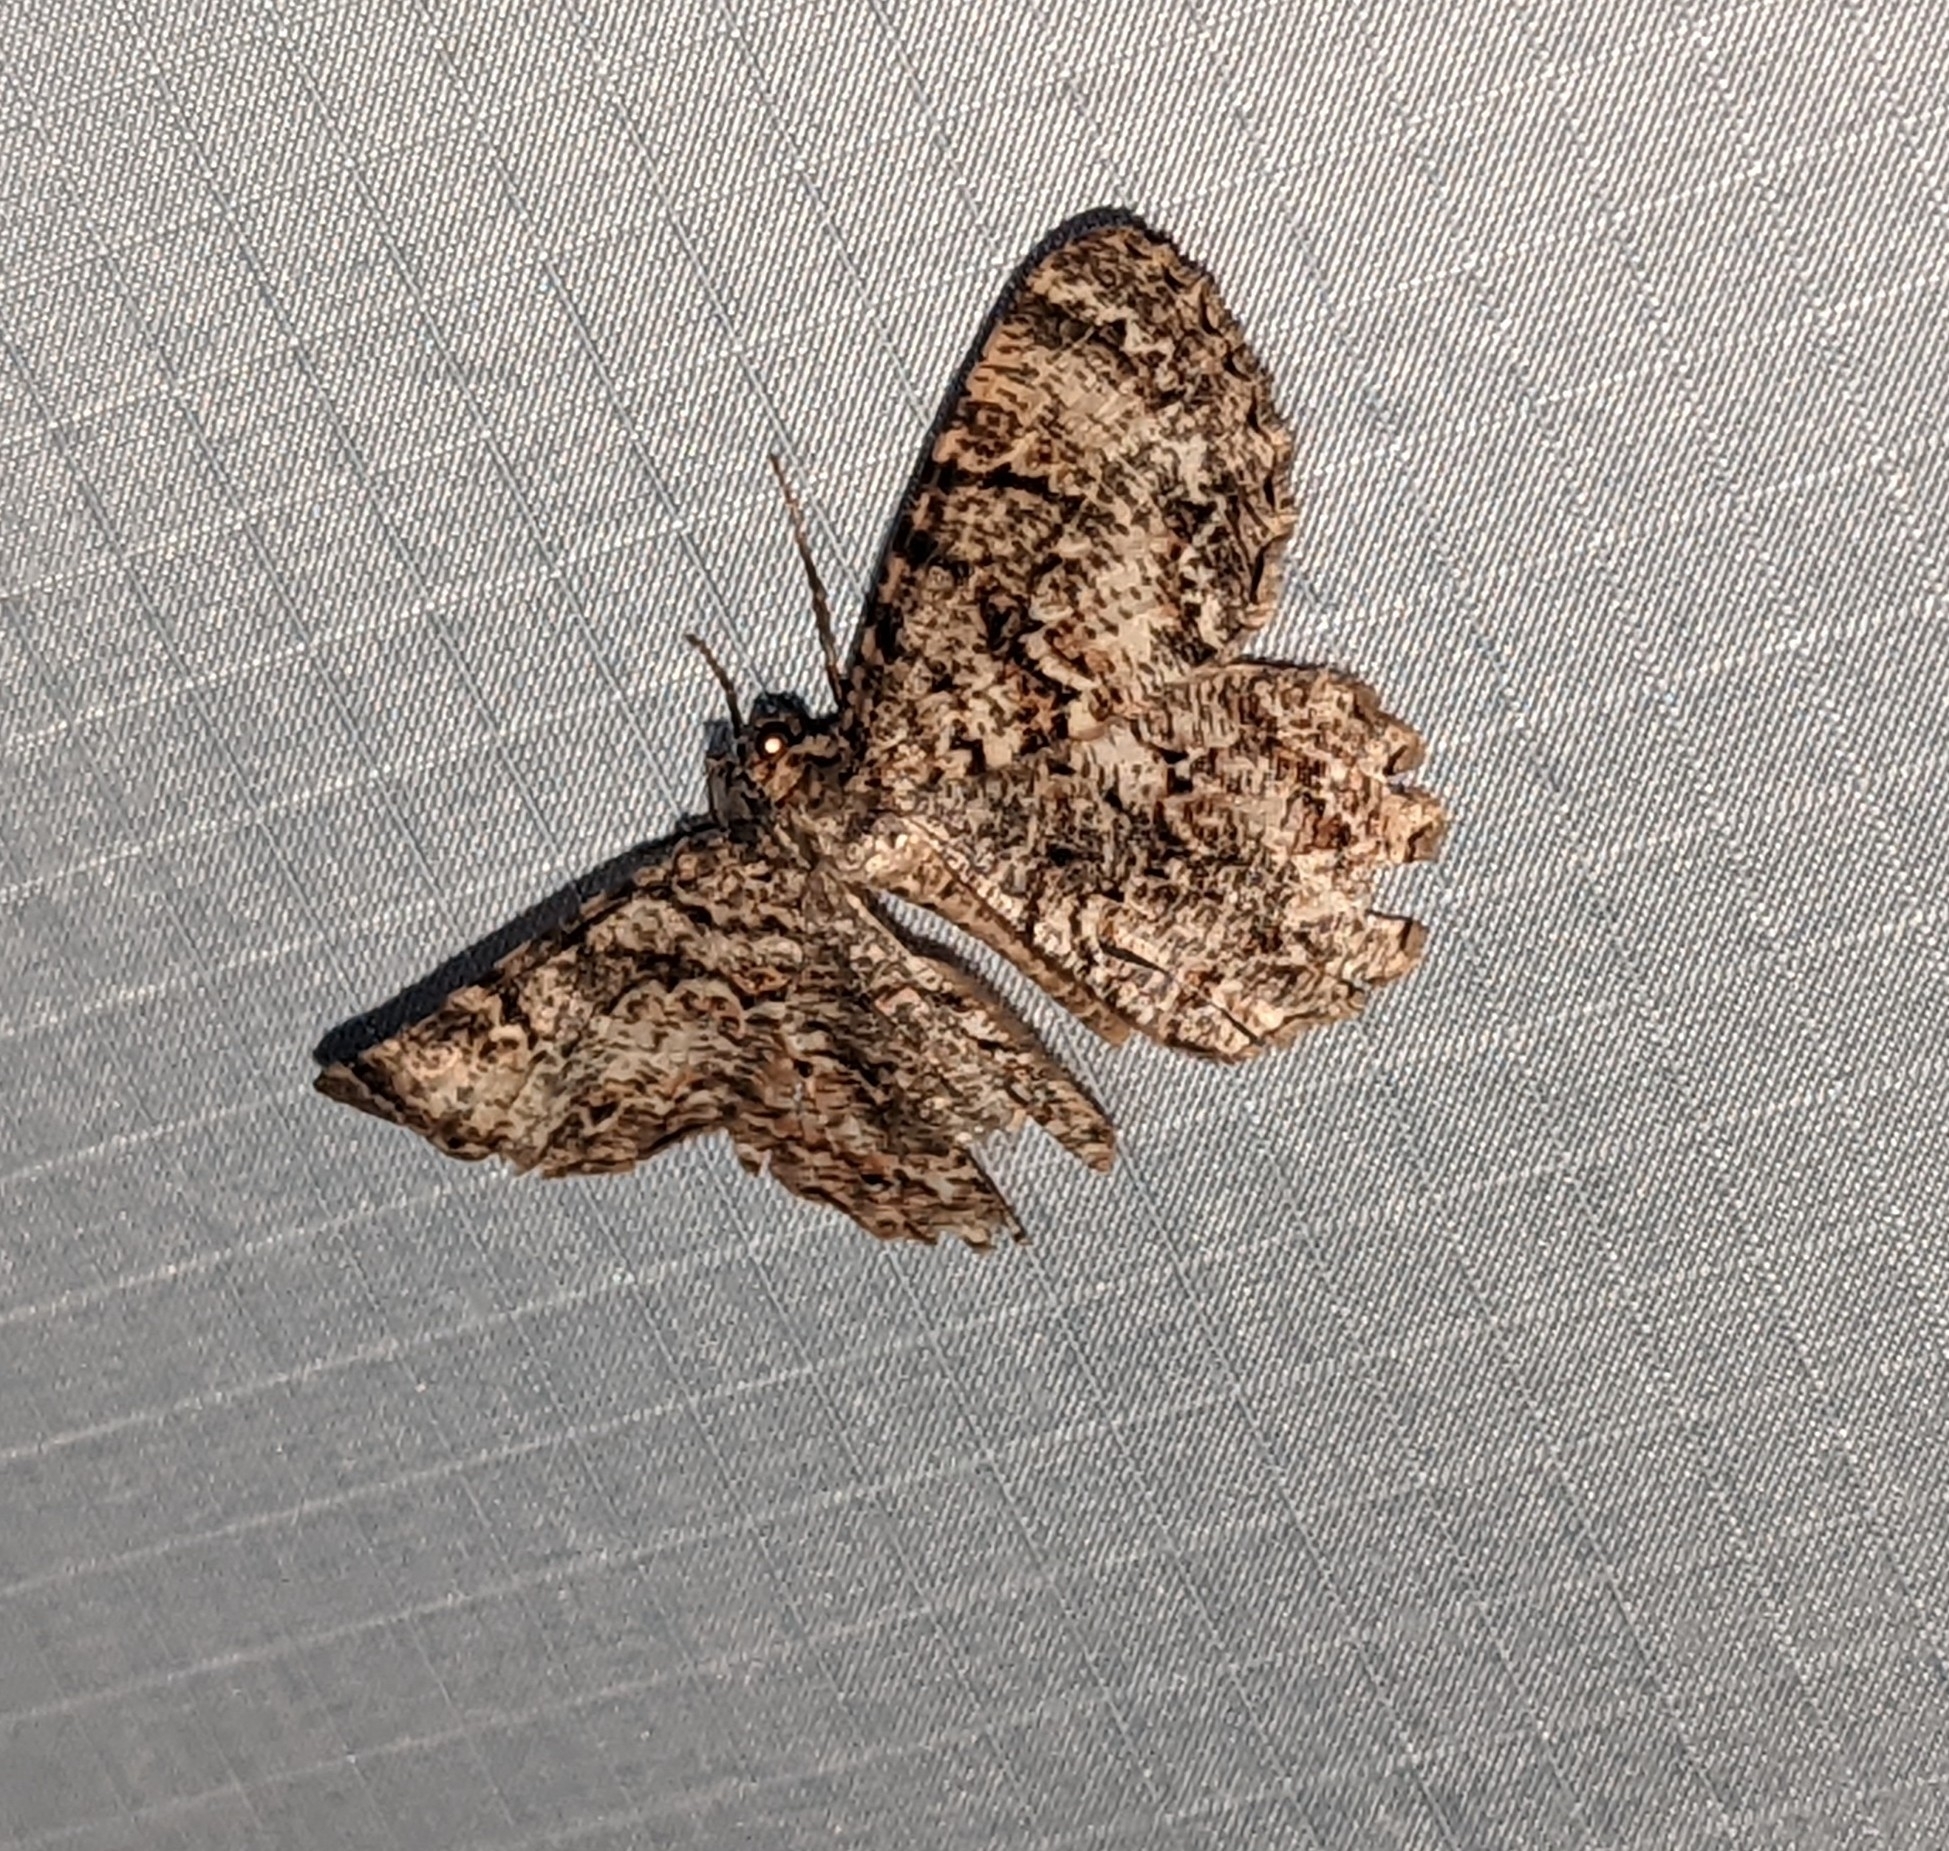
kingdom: Animalia
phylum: Arthropoda
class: Insecta
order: Lepidoptera
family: Geometridae
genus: Epimecis
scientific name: Epimecis hortaria
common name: Tulip-tree beauty
